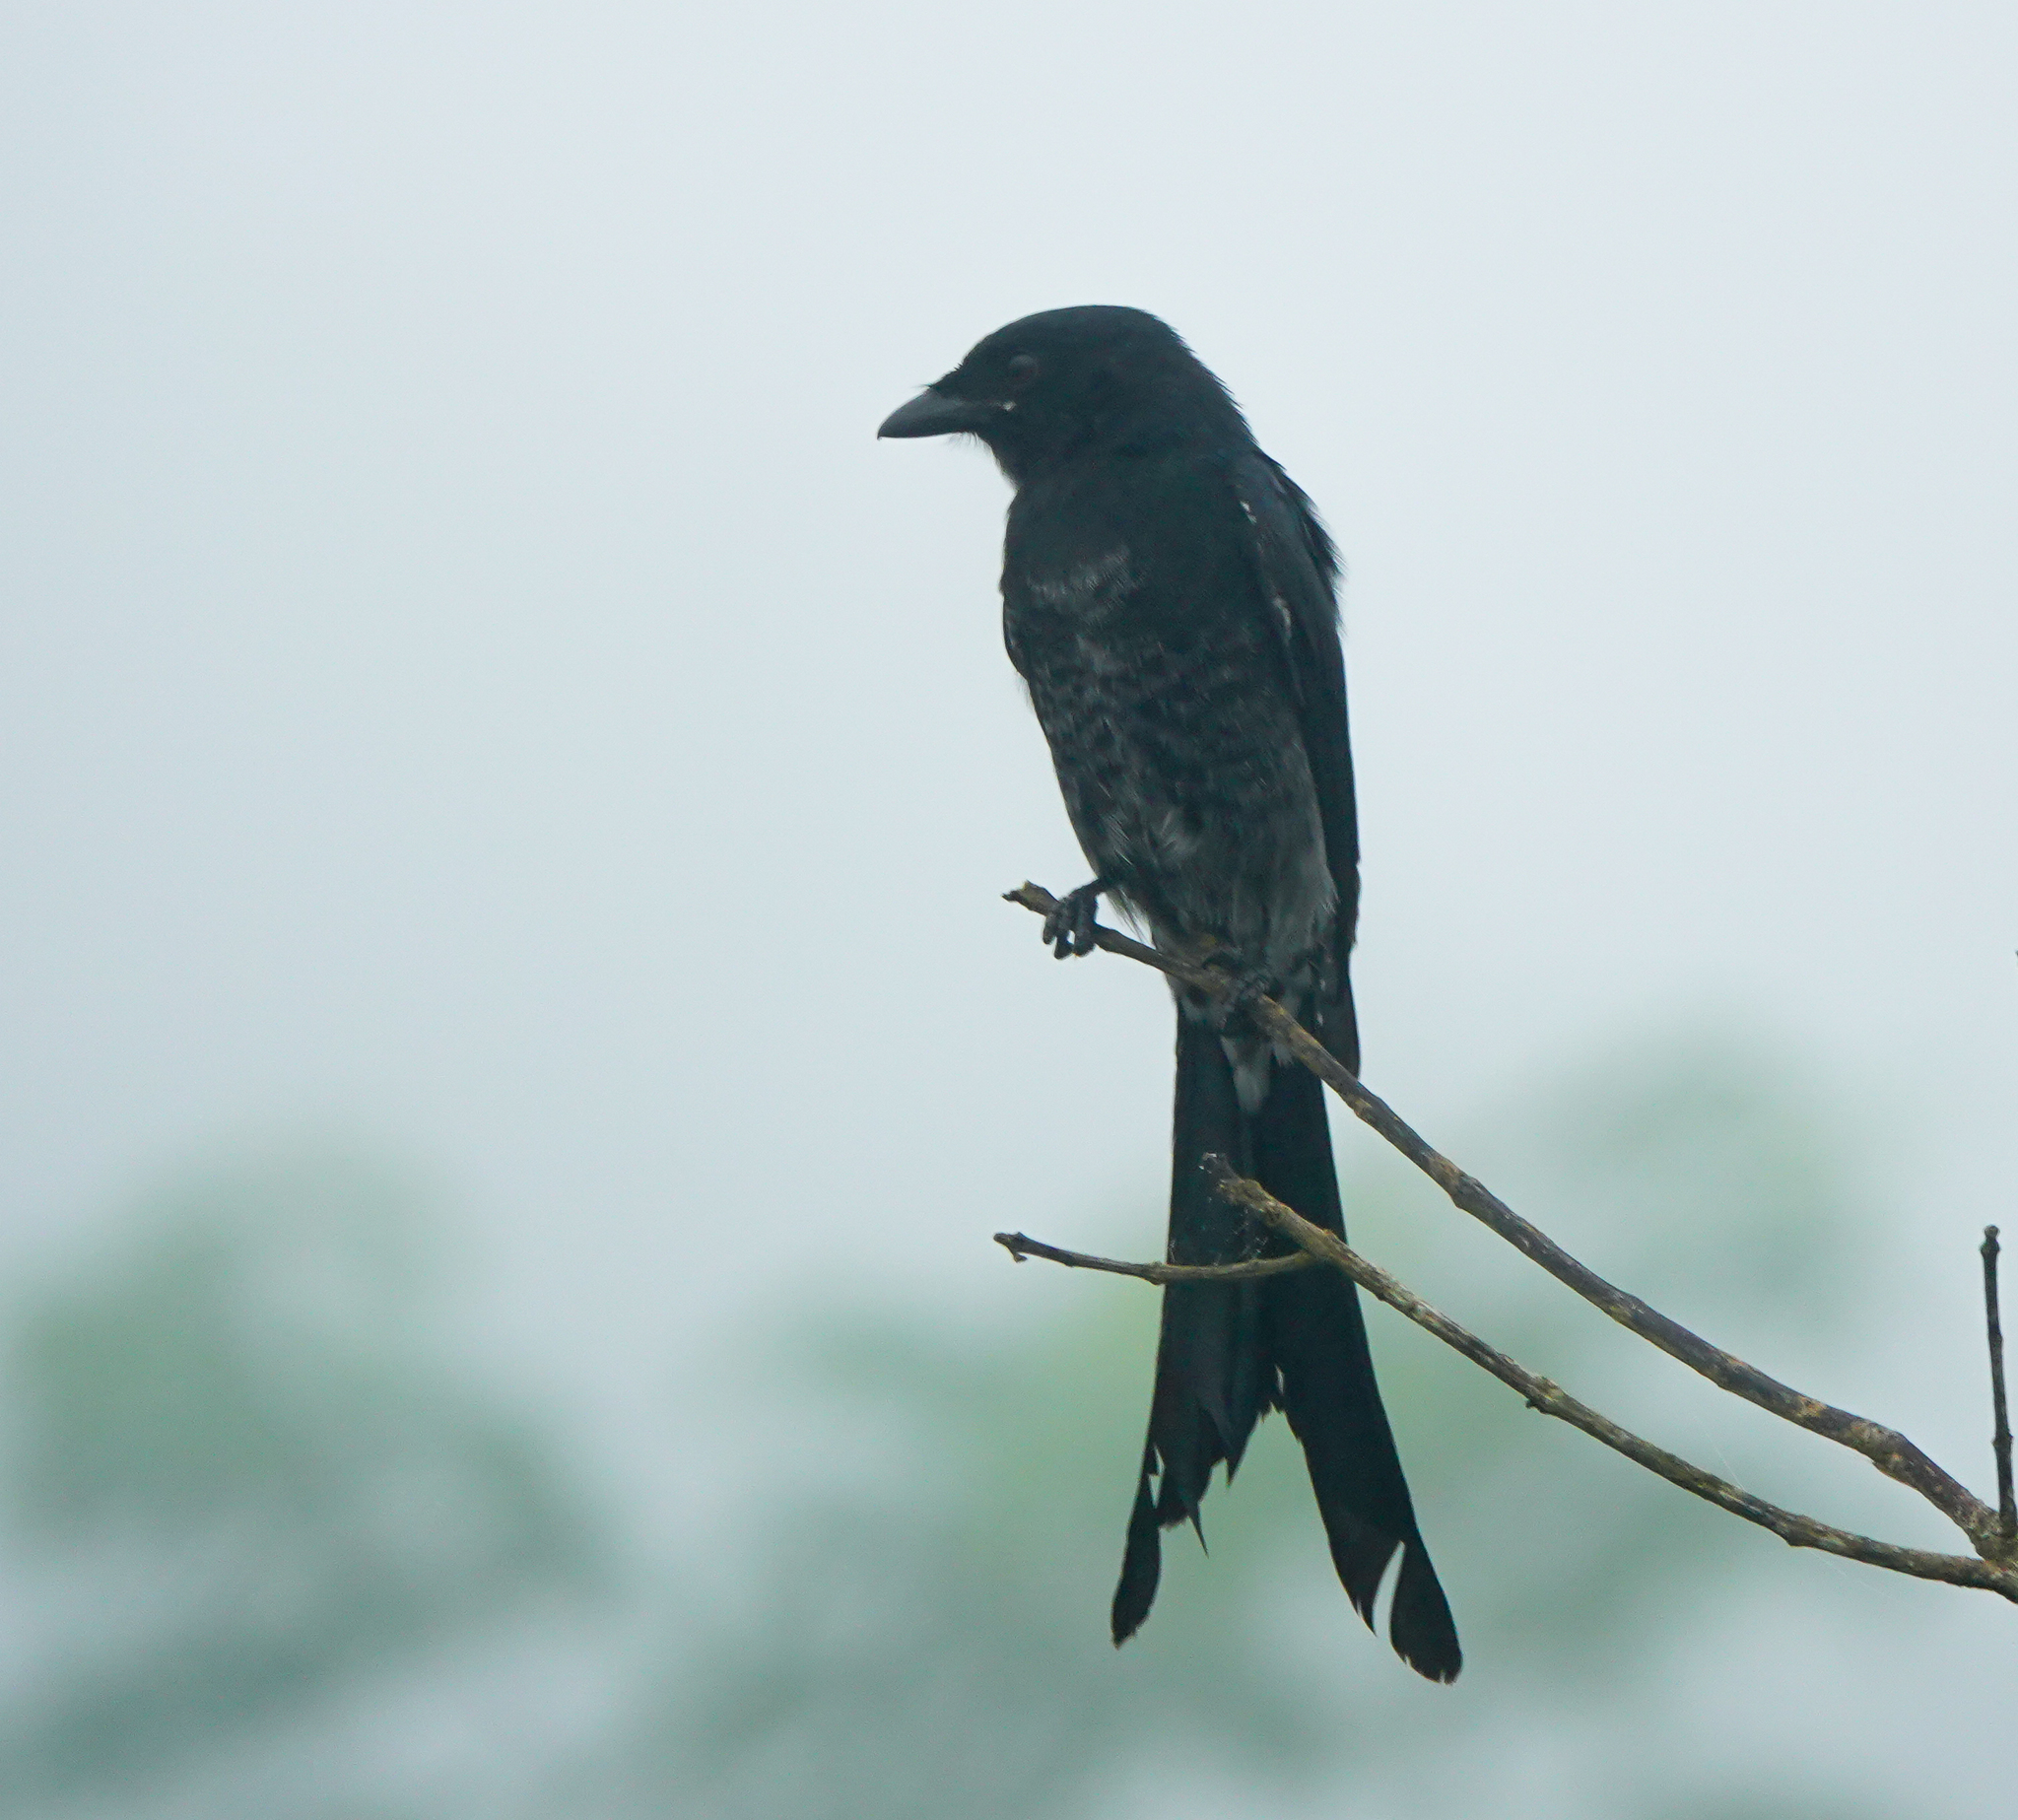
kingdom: Animalia
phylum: Chordata
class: Aves
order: Passeriformes
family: Dicruridae
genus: Dicrurus
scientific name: Dicrurus macrocercus
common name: Black drongo
